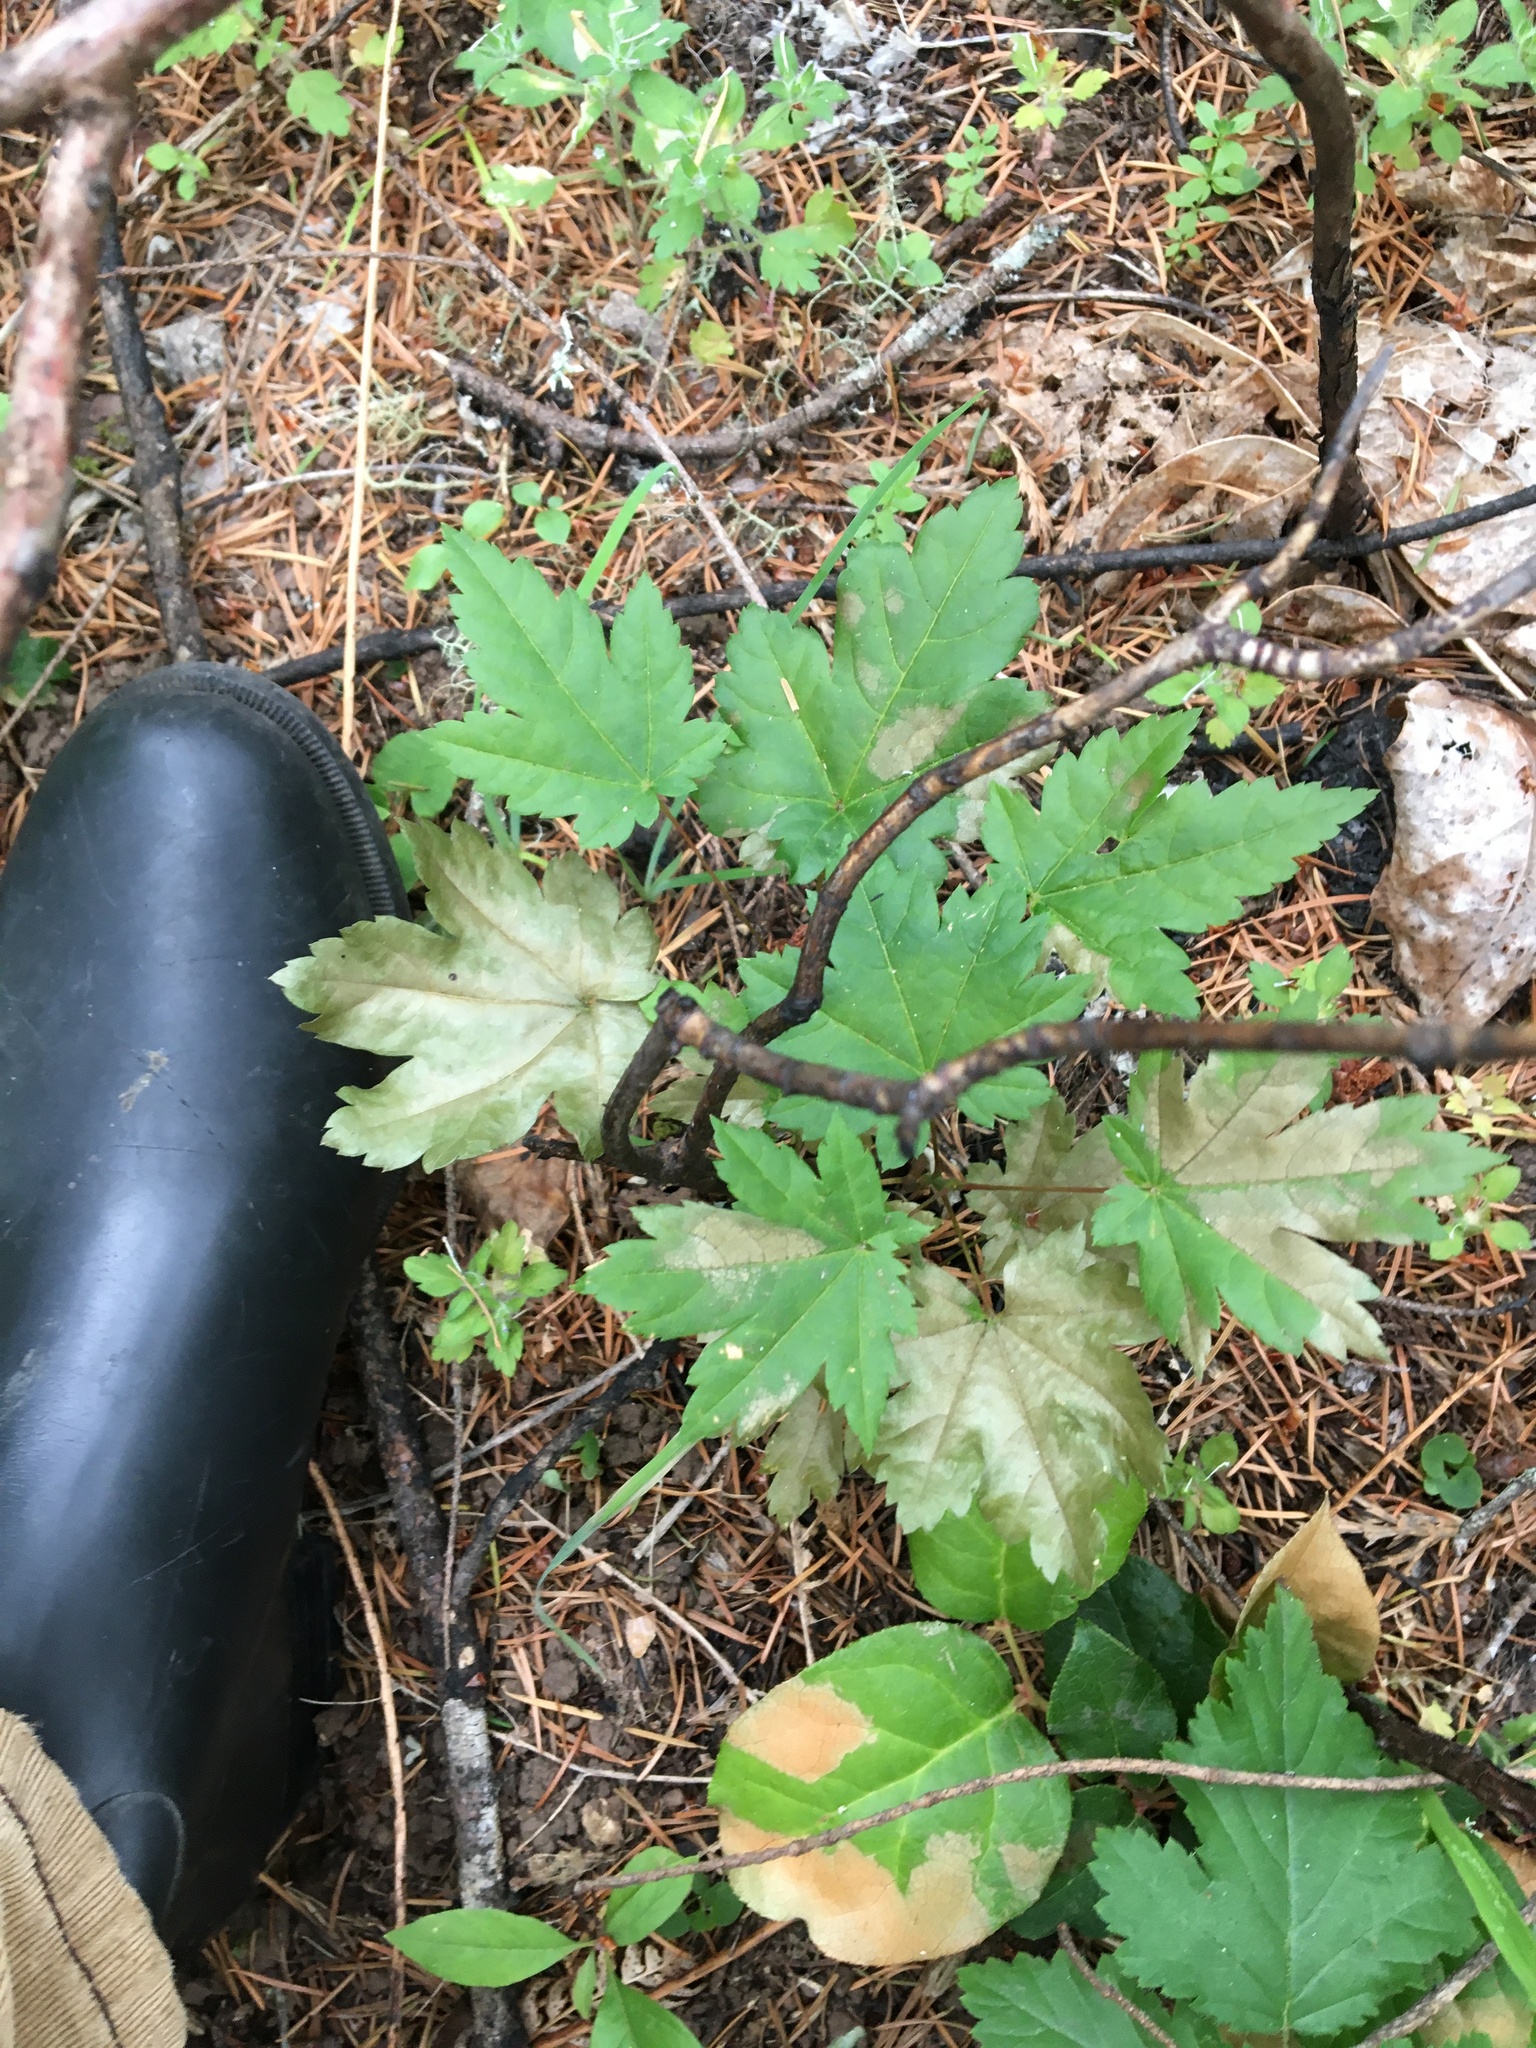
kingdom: Plantae
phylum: Tracheophyta
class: Magnoliopsida
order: Sapindales
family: Sapindaceae
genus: Acer
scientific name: Acer circinatum
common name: Vine maple
